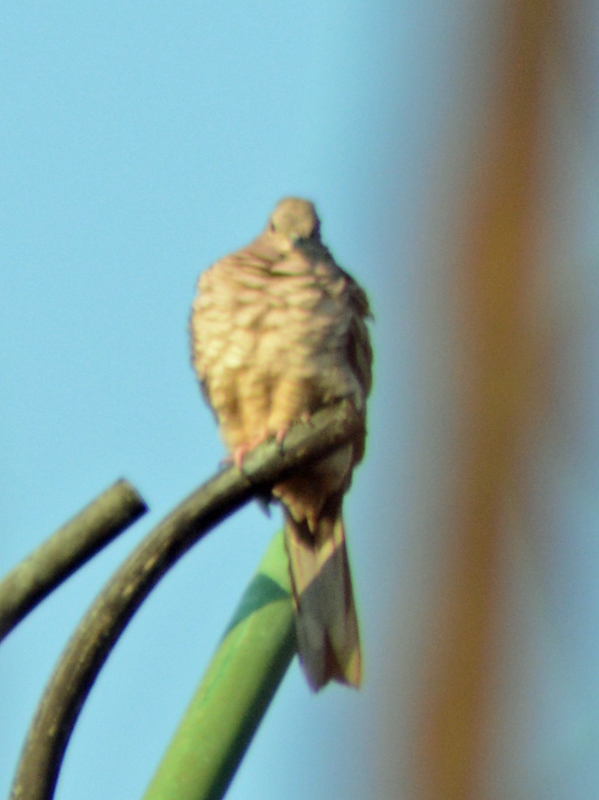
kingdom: Animalia
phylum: Chordata
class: Aves
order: Columbiformes
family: Columbidae
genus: Columbina
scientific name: Columbina inca
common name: Inca dove
